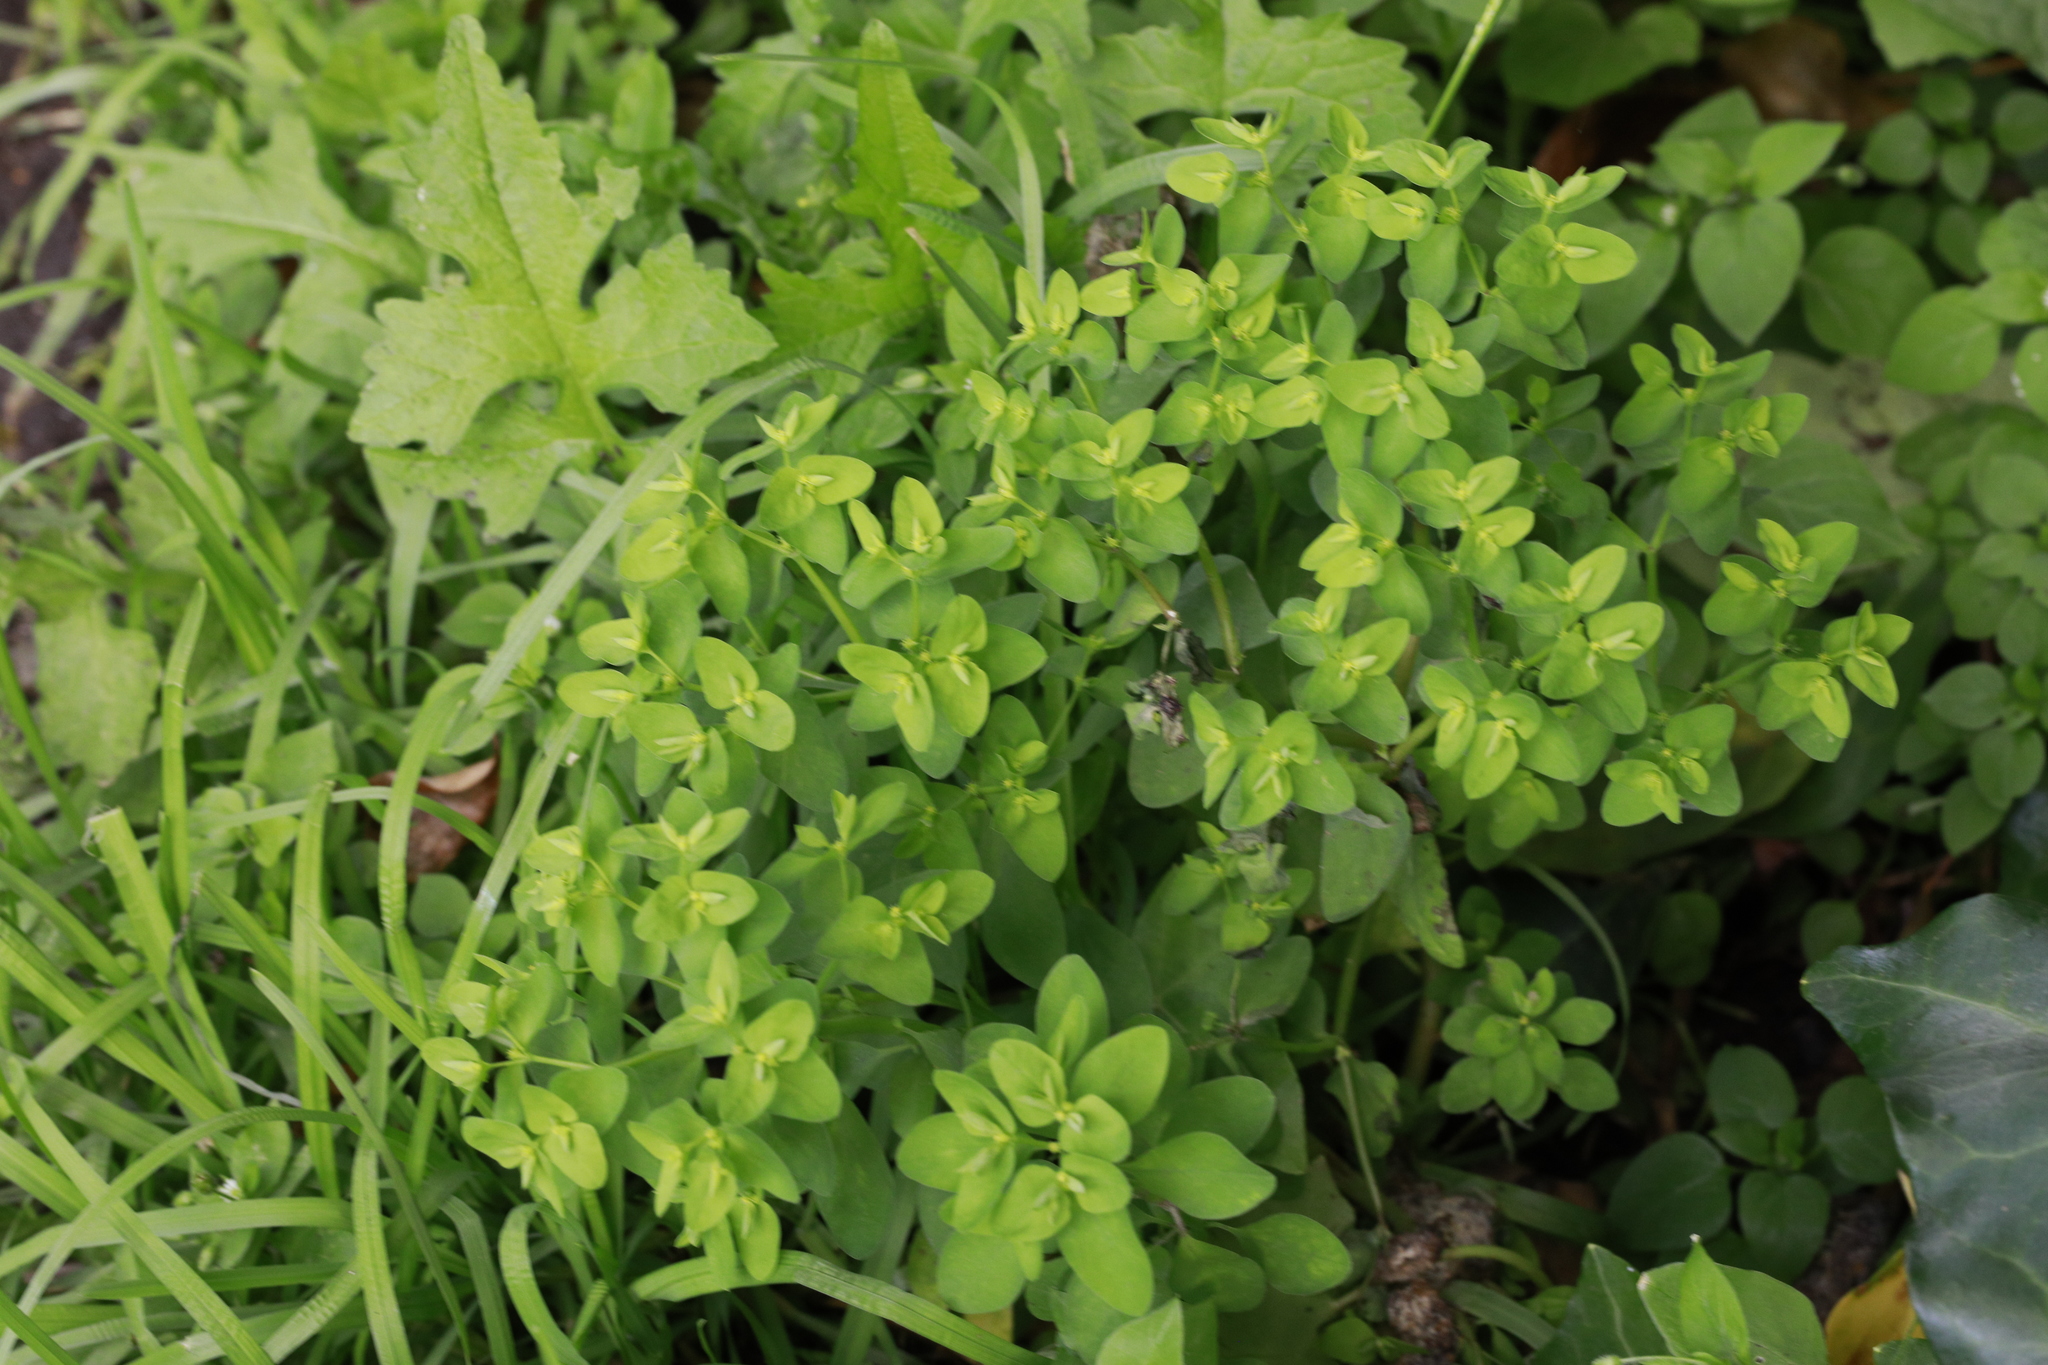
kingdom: Plantae
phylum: Tracheophyta
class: Magnoliopsida
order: Malpighiales
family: Euphorbiaceae
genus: Euphorbia
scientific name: Euphorbia peplus
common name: Petty spurge
